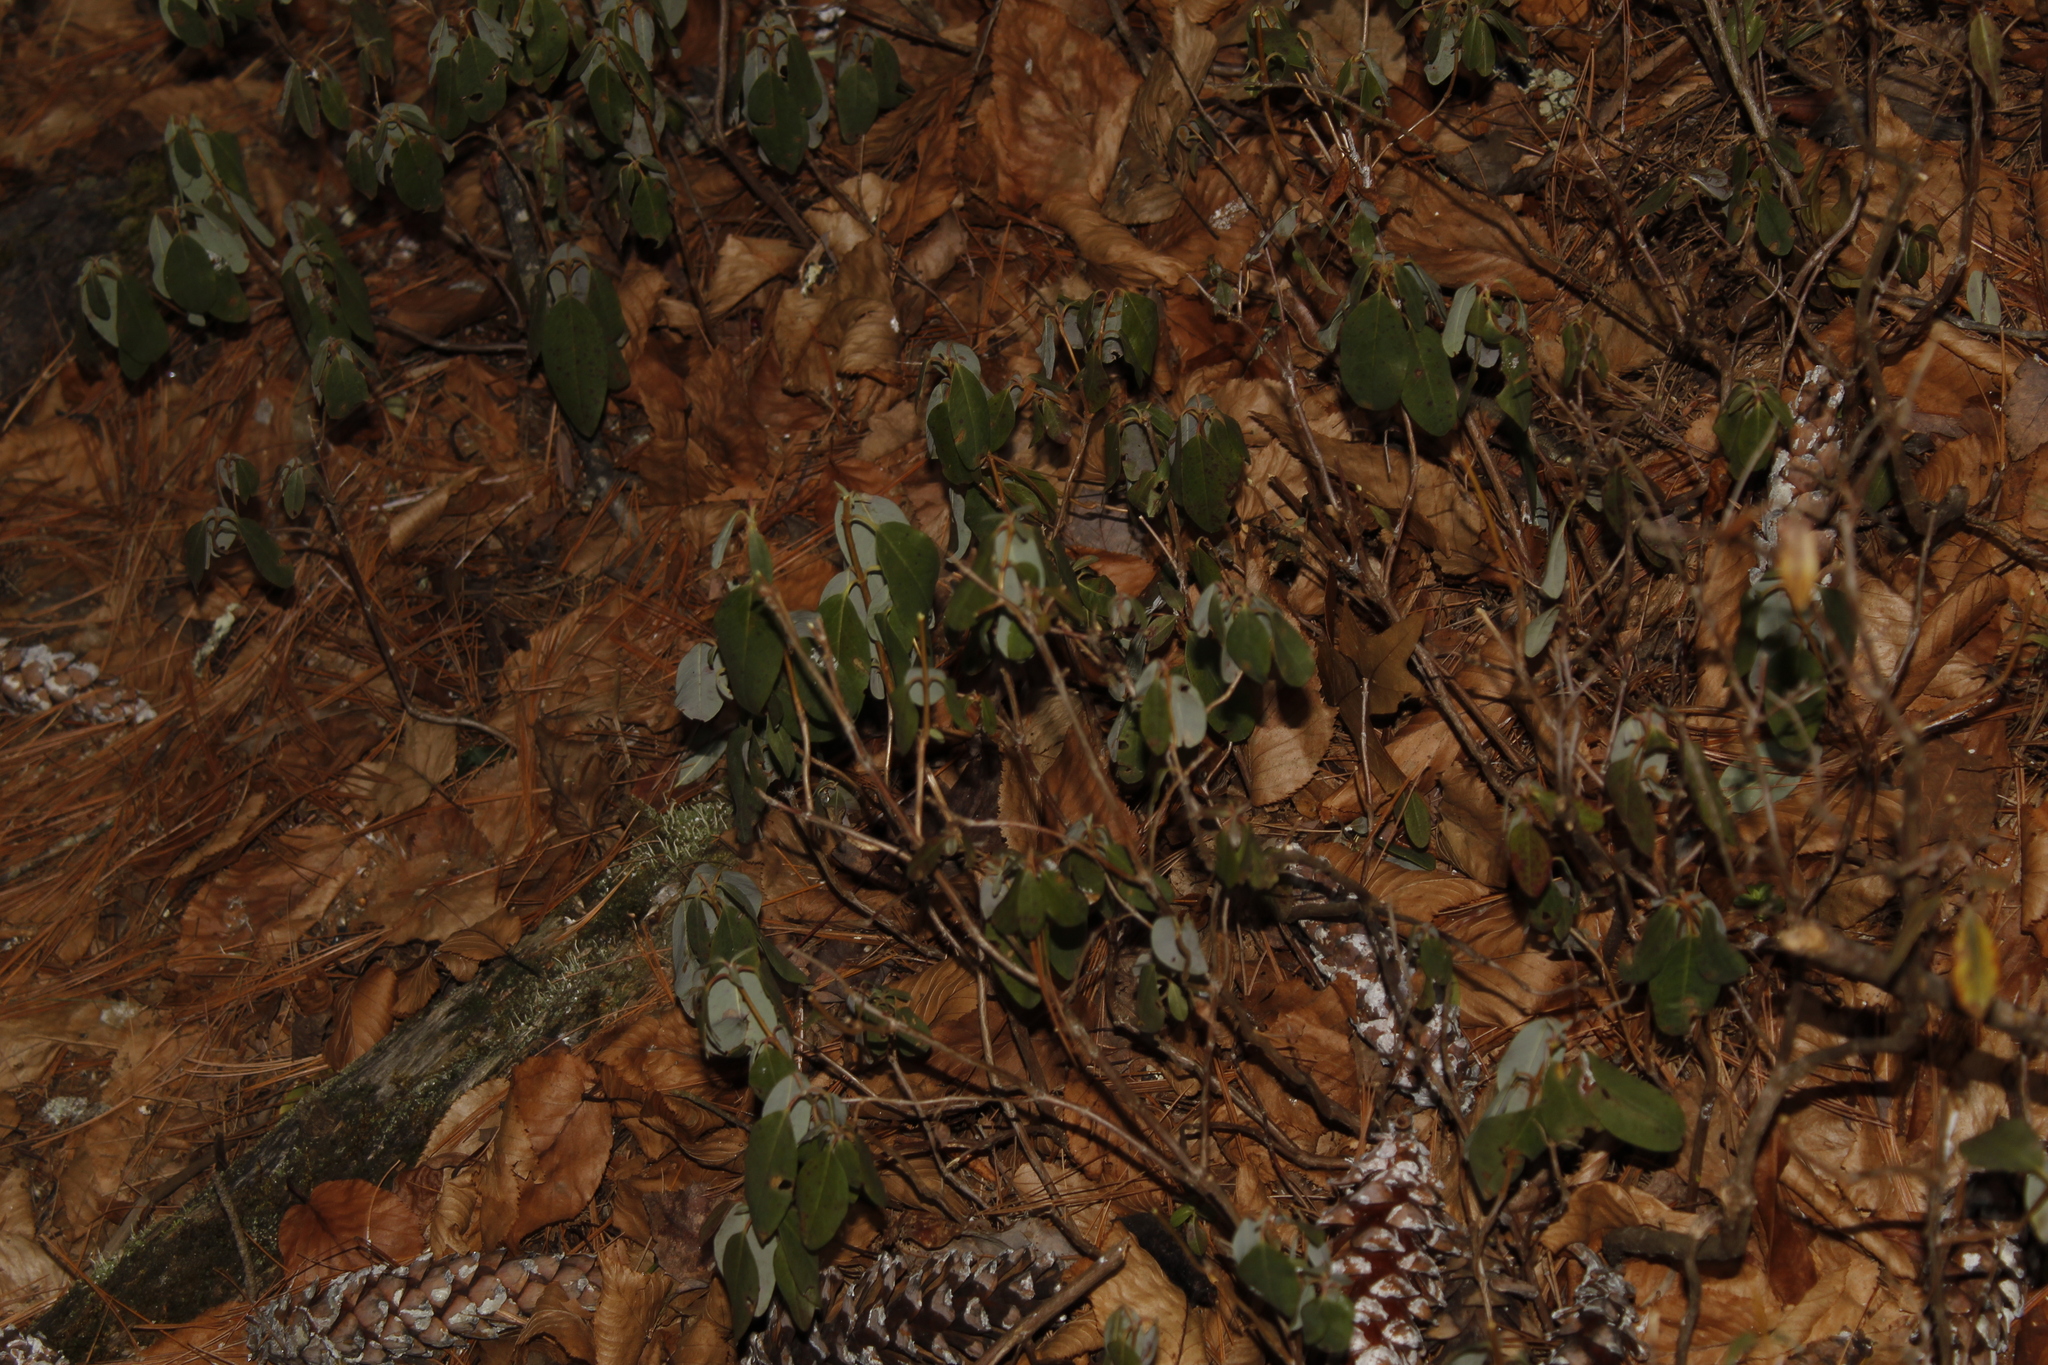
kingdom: Plantae
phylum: Tracheophyta
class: Magnoliopsida
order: Ericales
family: Ericaceae
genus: Kalmia
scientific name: Kalmia angustifolia
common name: Sheep-laurel
